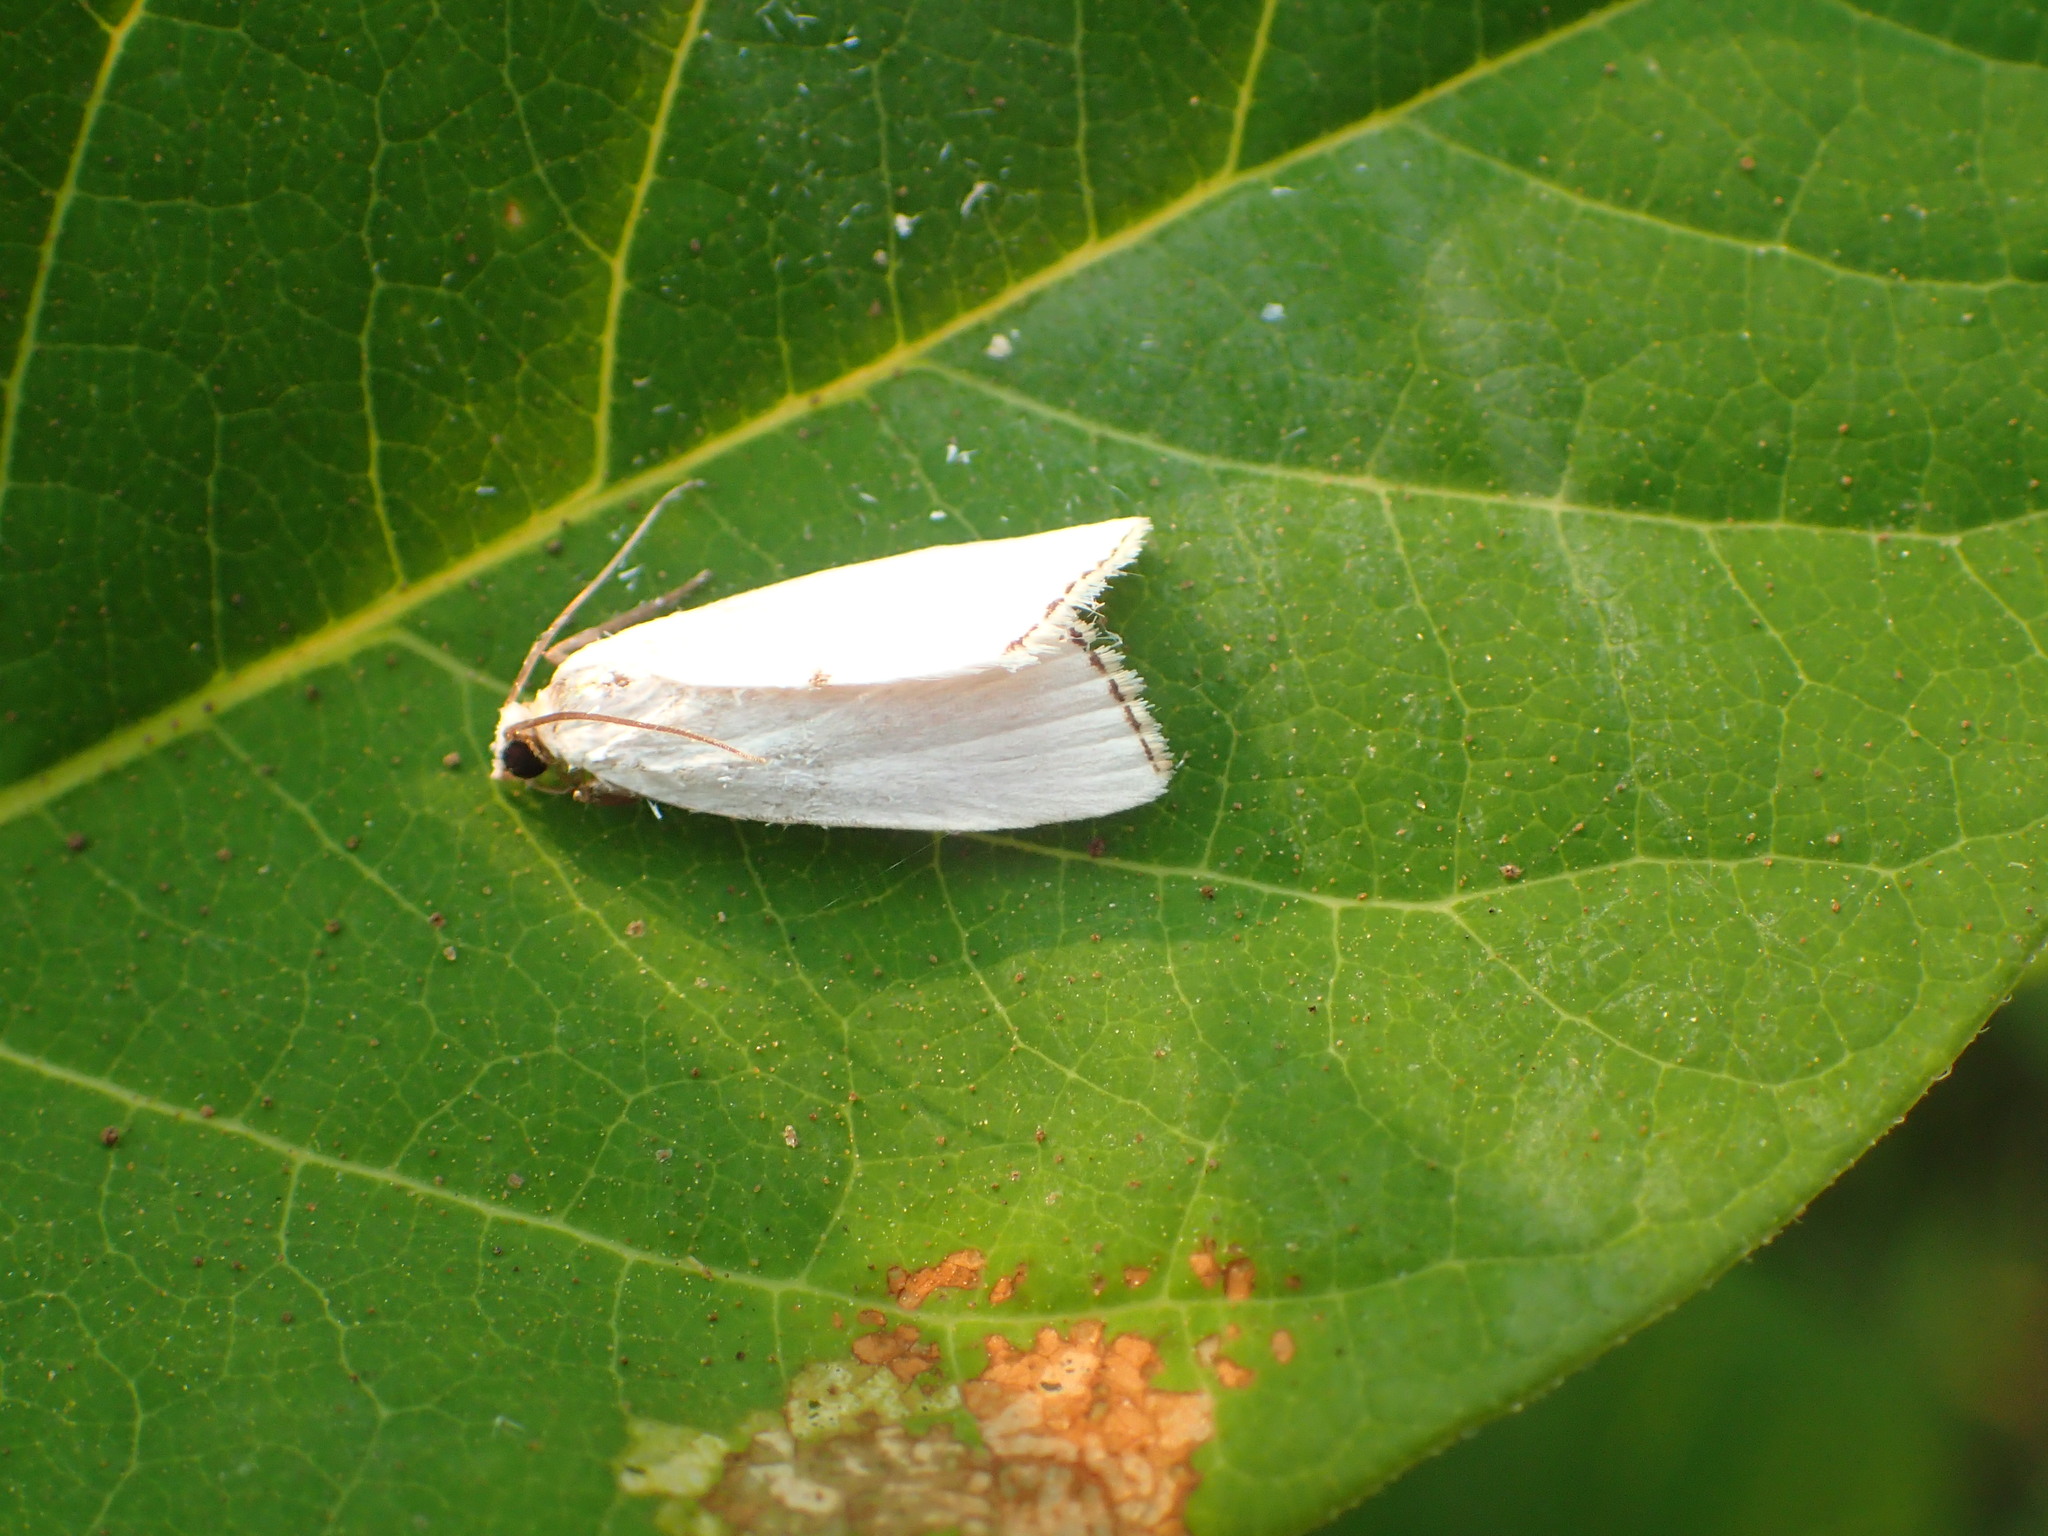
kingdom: Animalia
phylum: Arthropoda
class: Insecta
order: Lepidoptera
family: Crambidae
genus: Argyria
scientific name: Argyria nivalis
